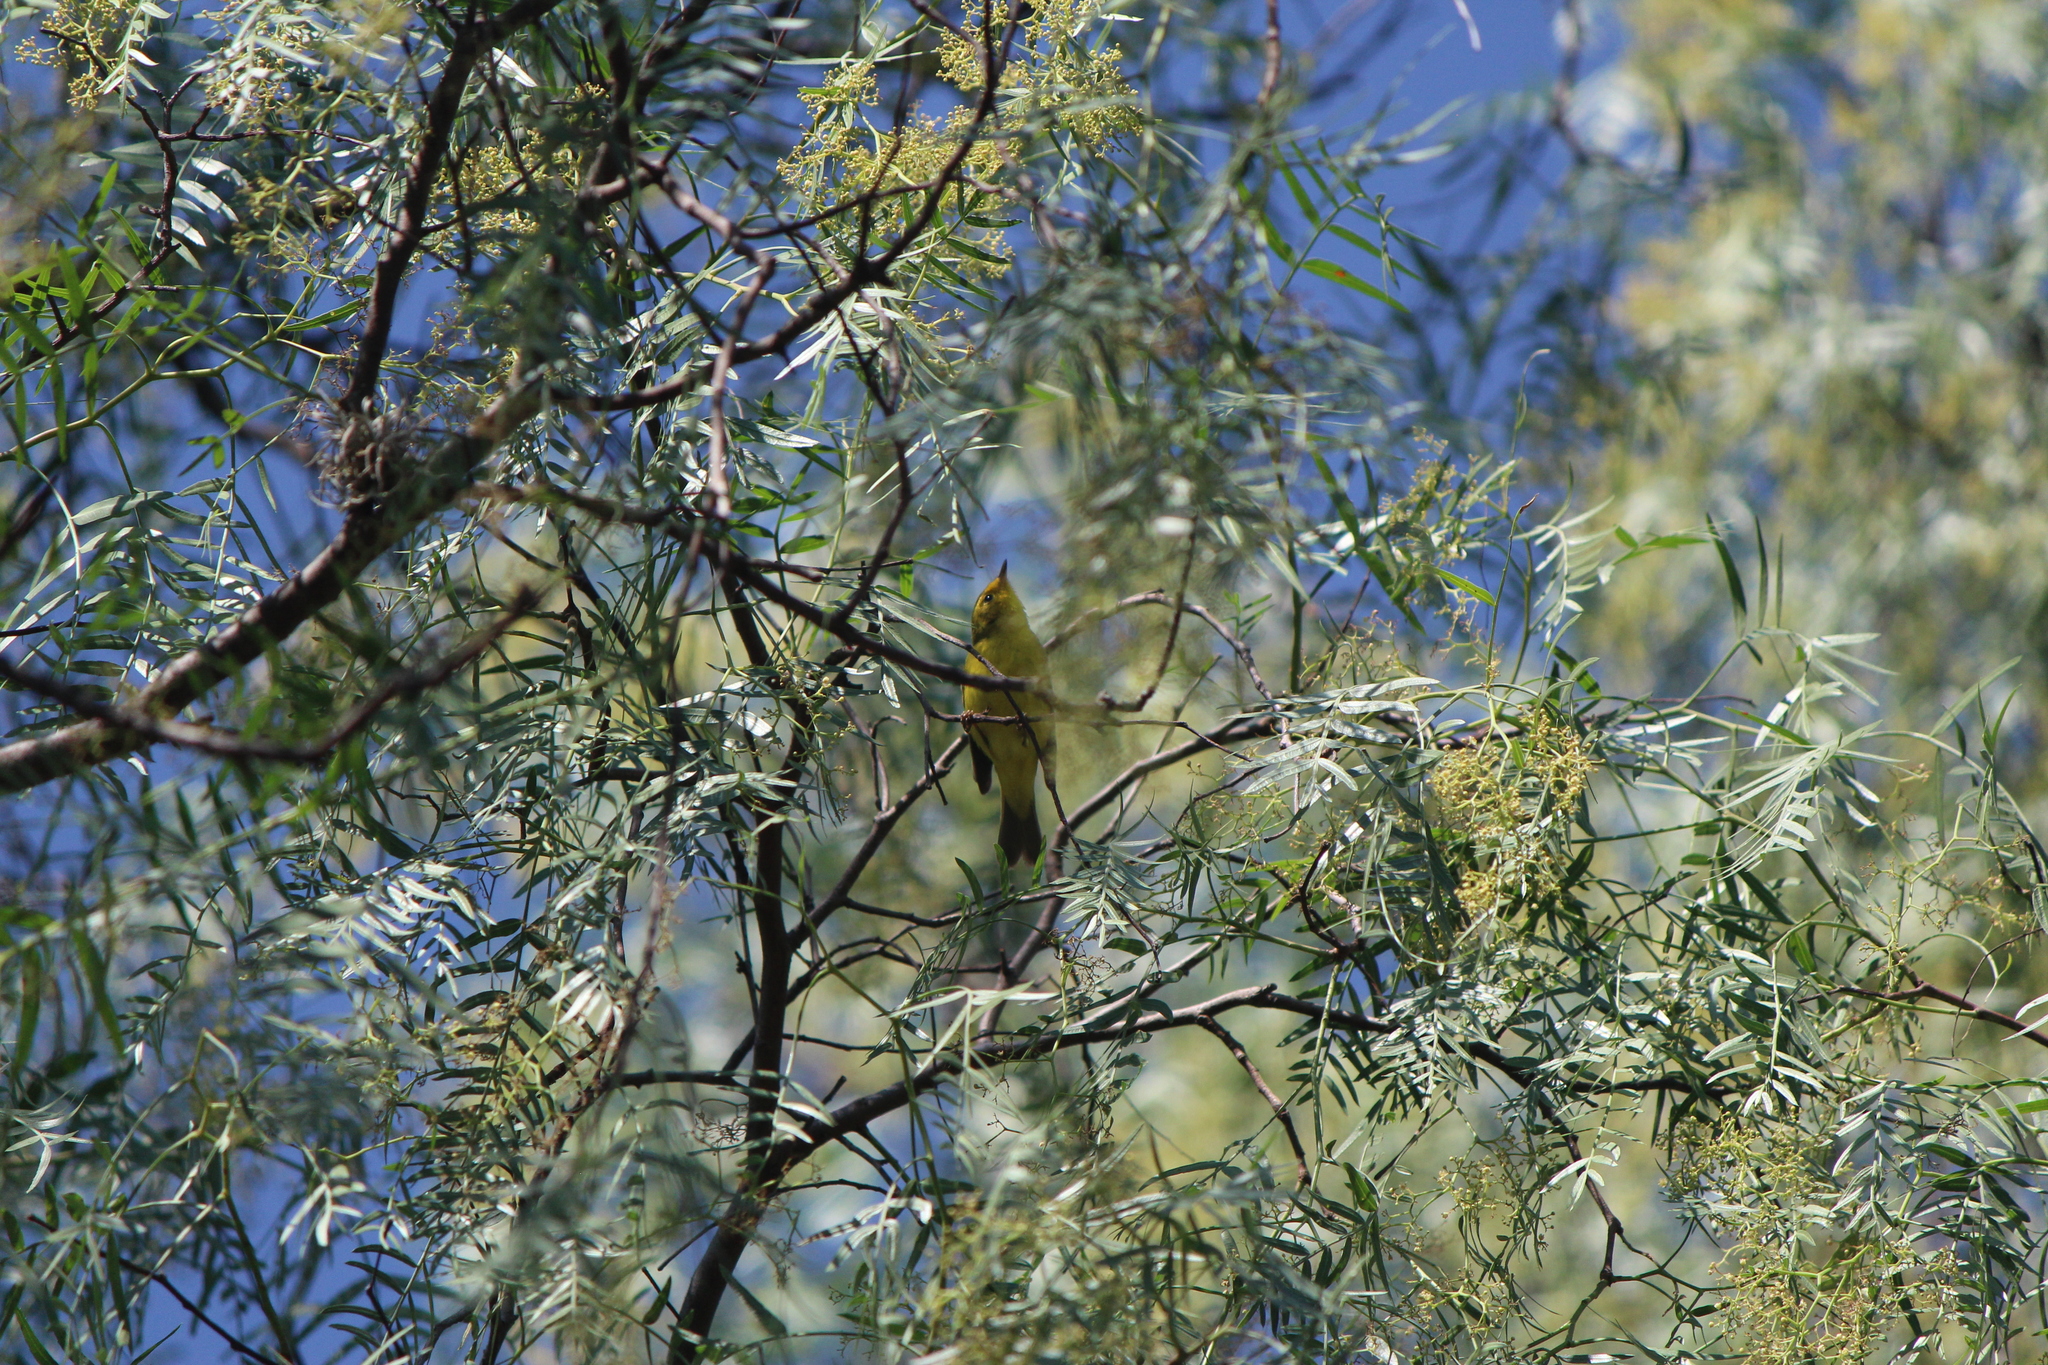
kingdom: Animalia
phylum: Chordata
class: Aves
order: Passeriformes
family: Parulidae
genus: Cardellina
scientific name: Cardellina pusilla
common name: Wilson's warbler
